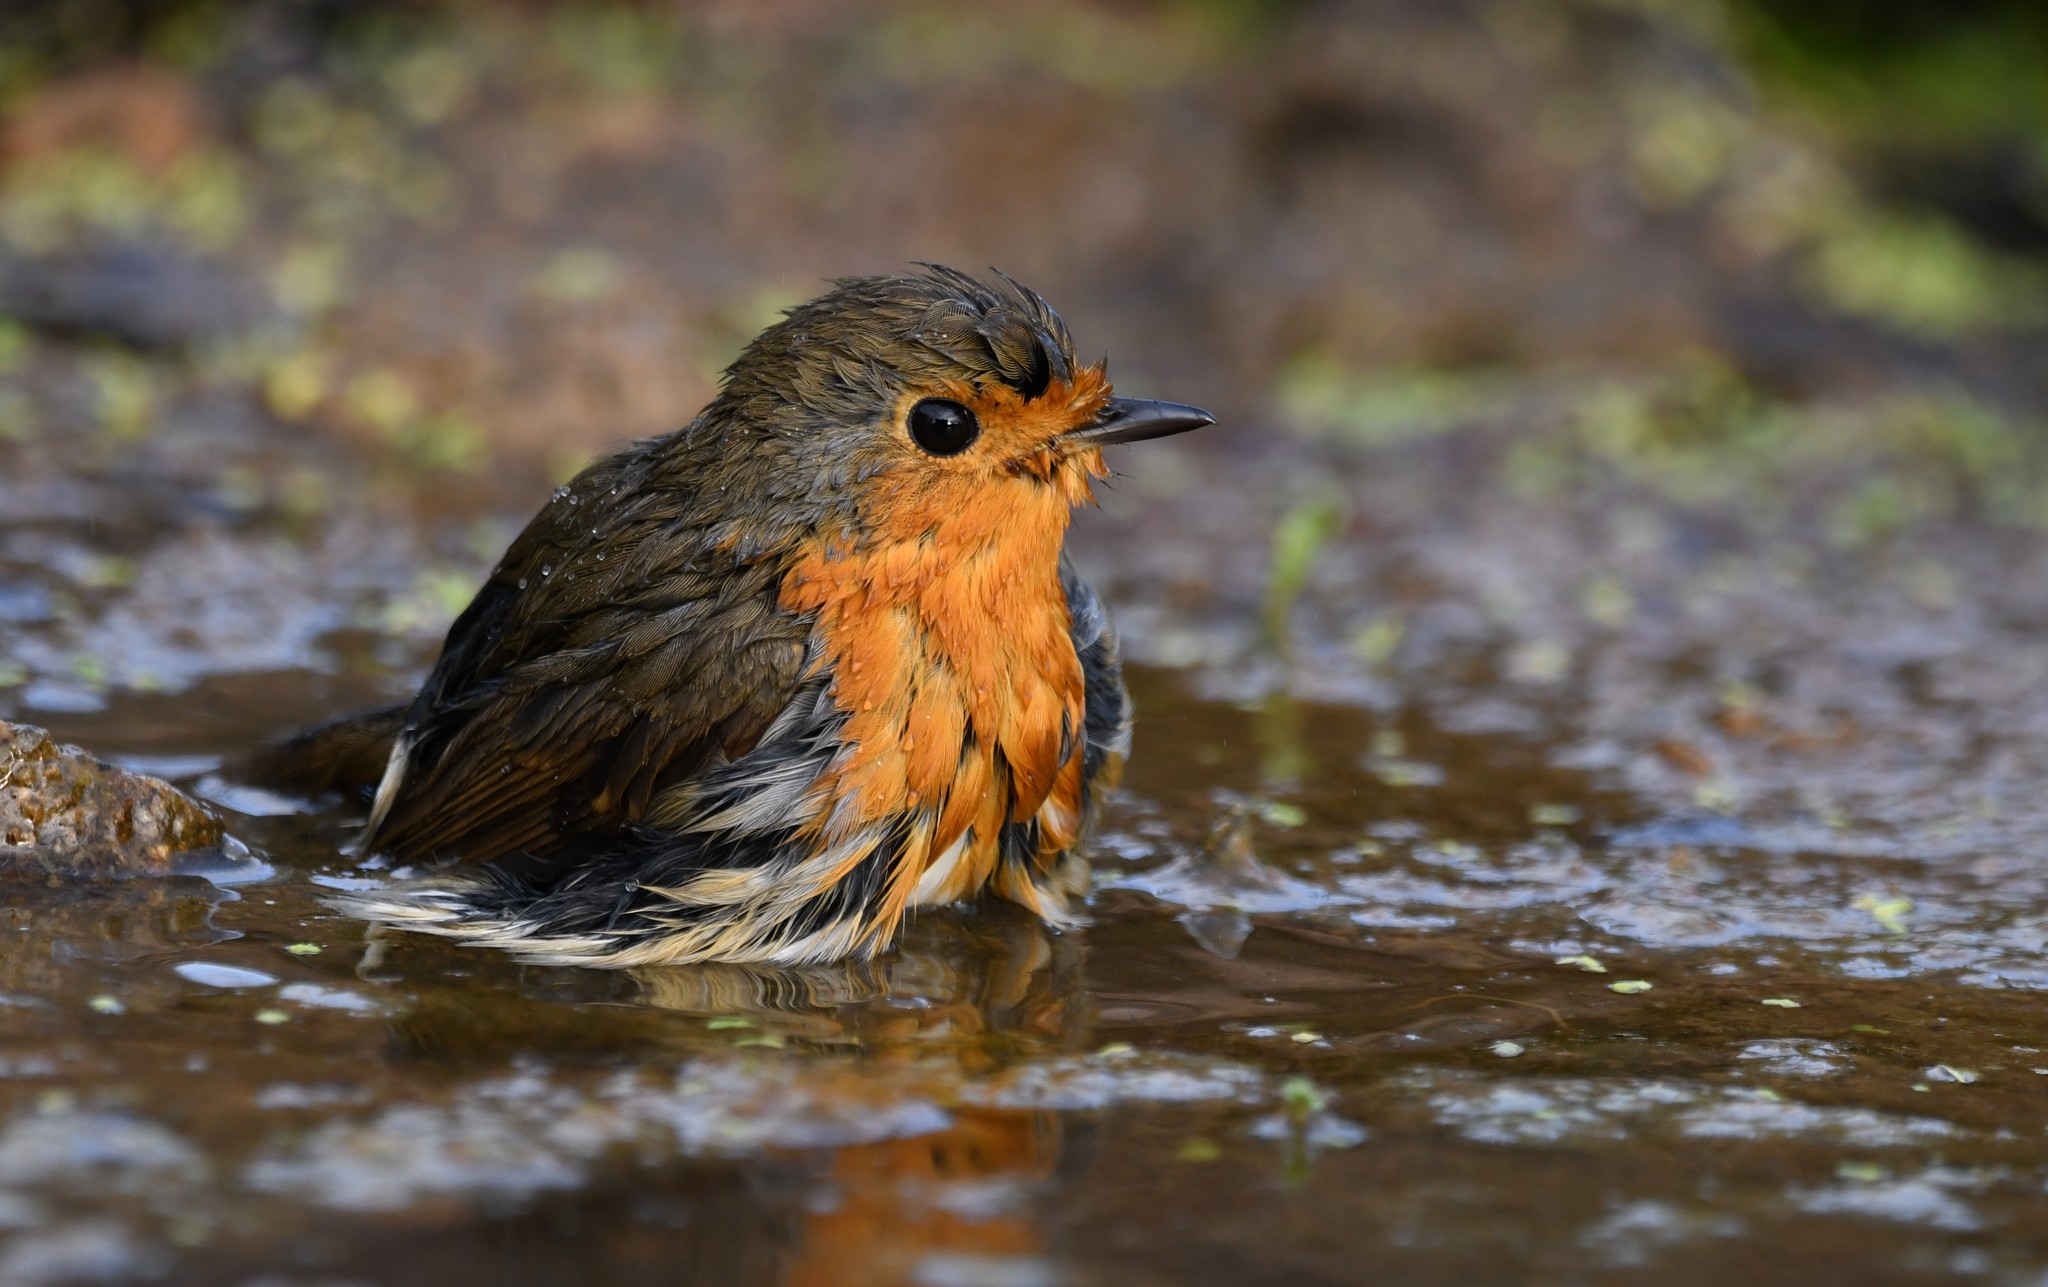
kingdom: Animalia
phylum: Chordata
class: Aves
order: Passeriformes
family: Muscicapidae
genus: Erithacus
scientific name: Erithacus rubecula
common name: European robin
